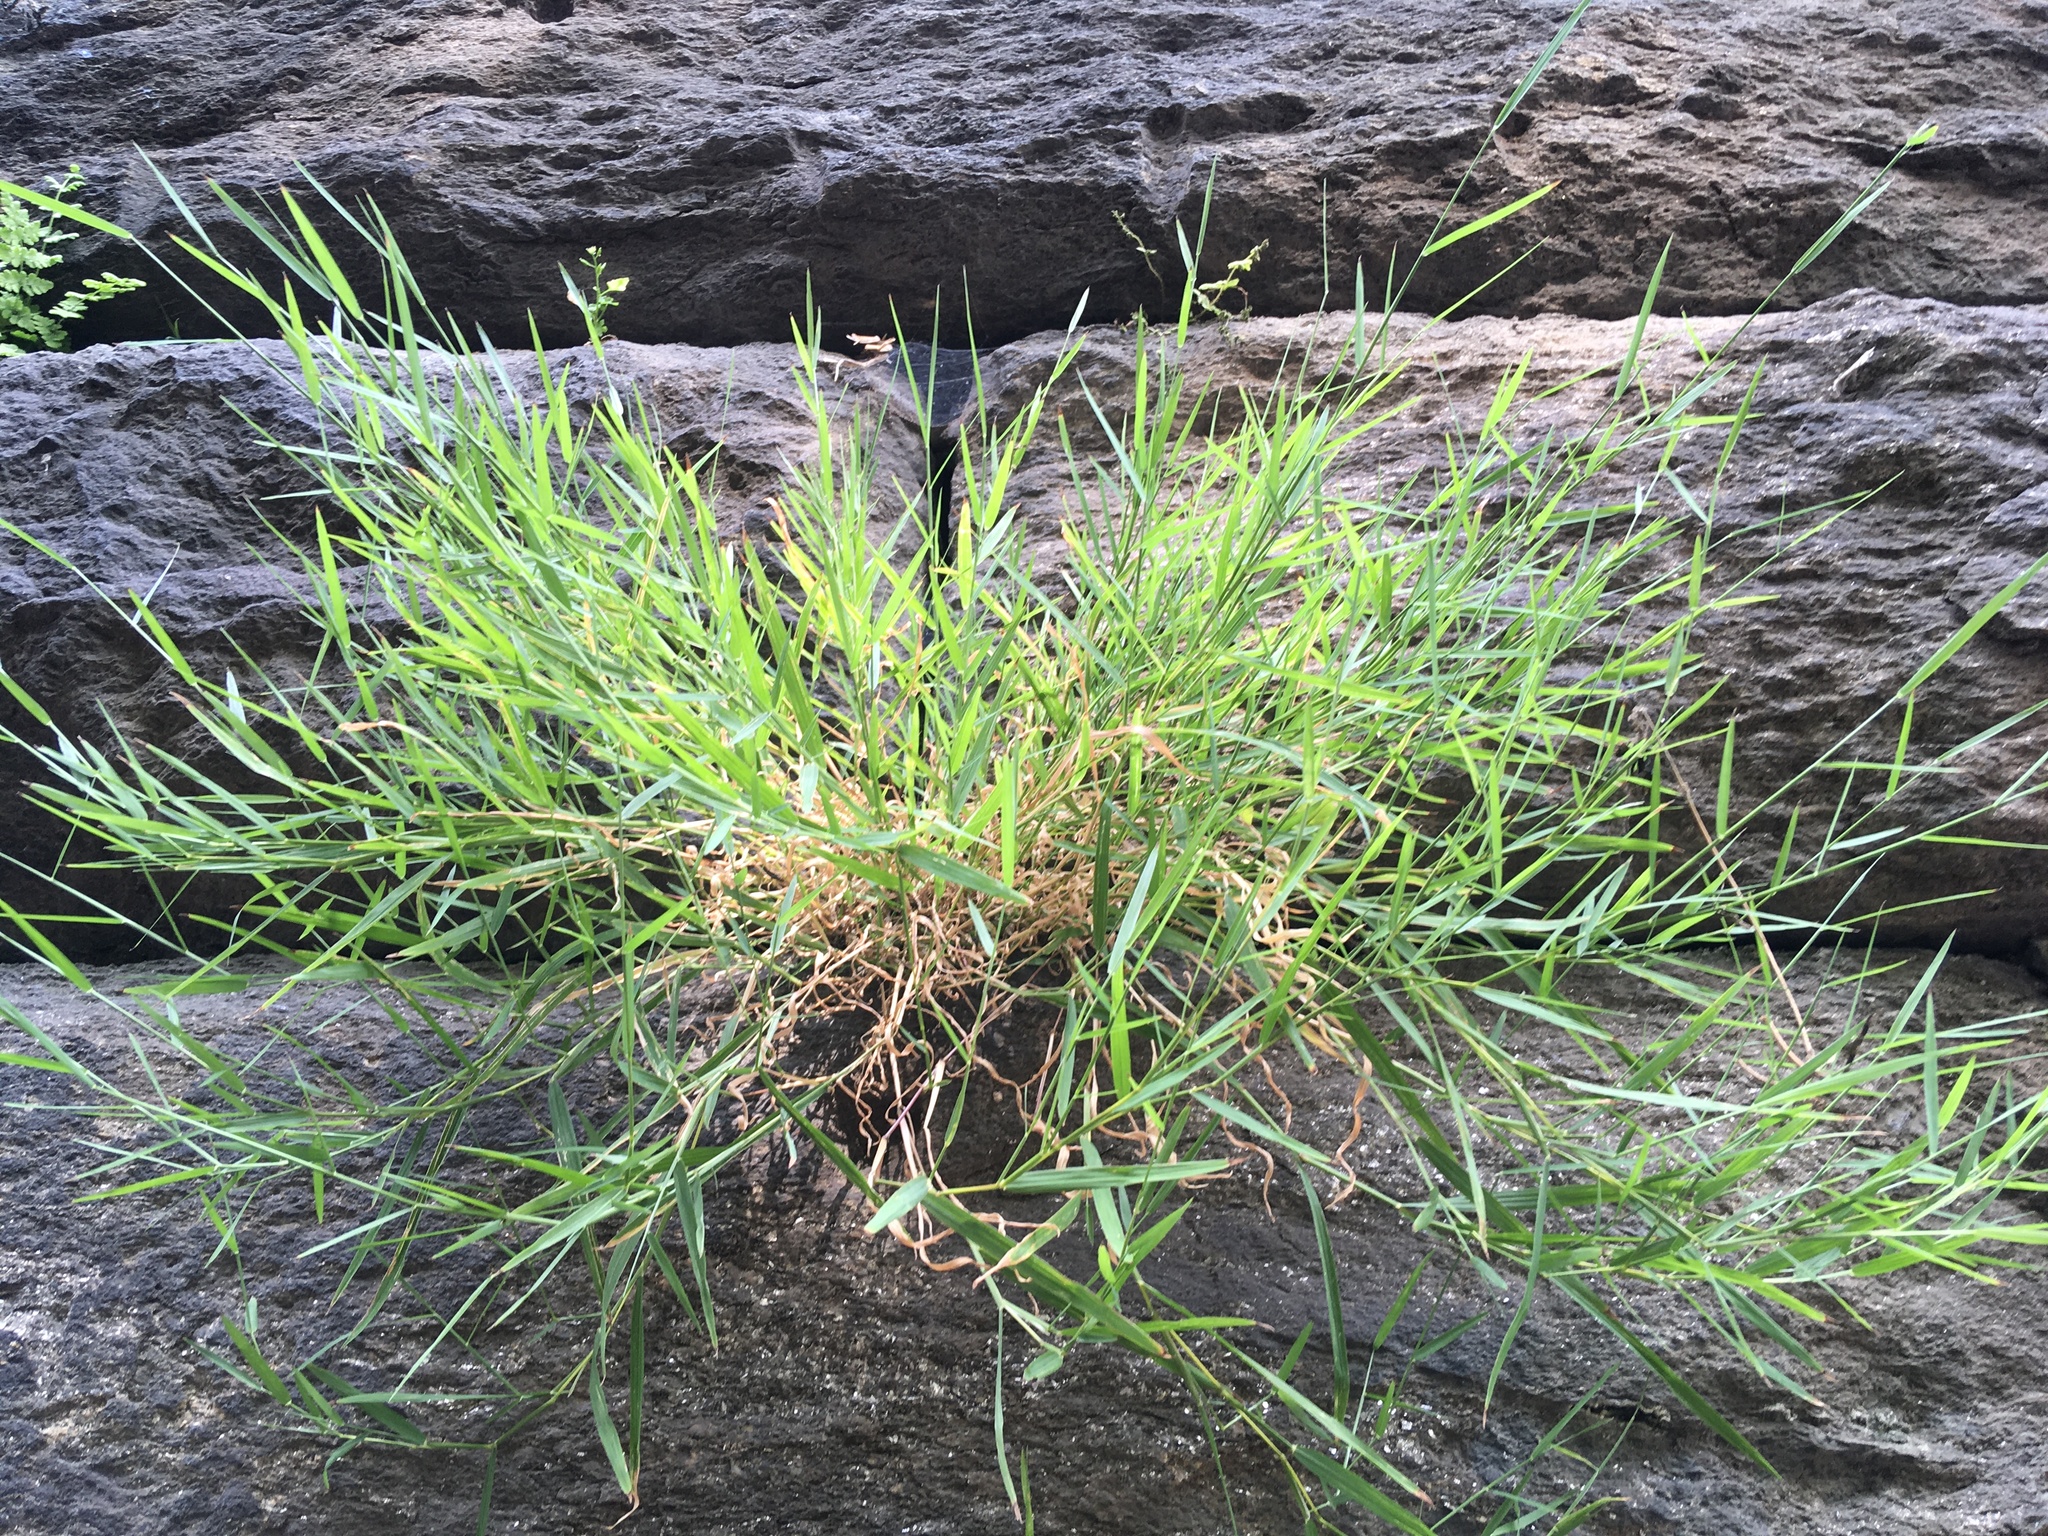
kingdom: Plantae
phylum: Tracheophyta
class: Liliopsida
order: Poales
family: Poaceae
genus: Muhlenbergia
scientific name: Muhlenbergia schreberi
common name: Nimblewill
